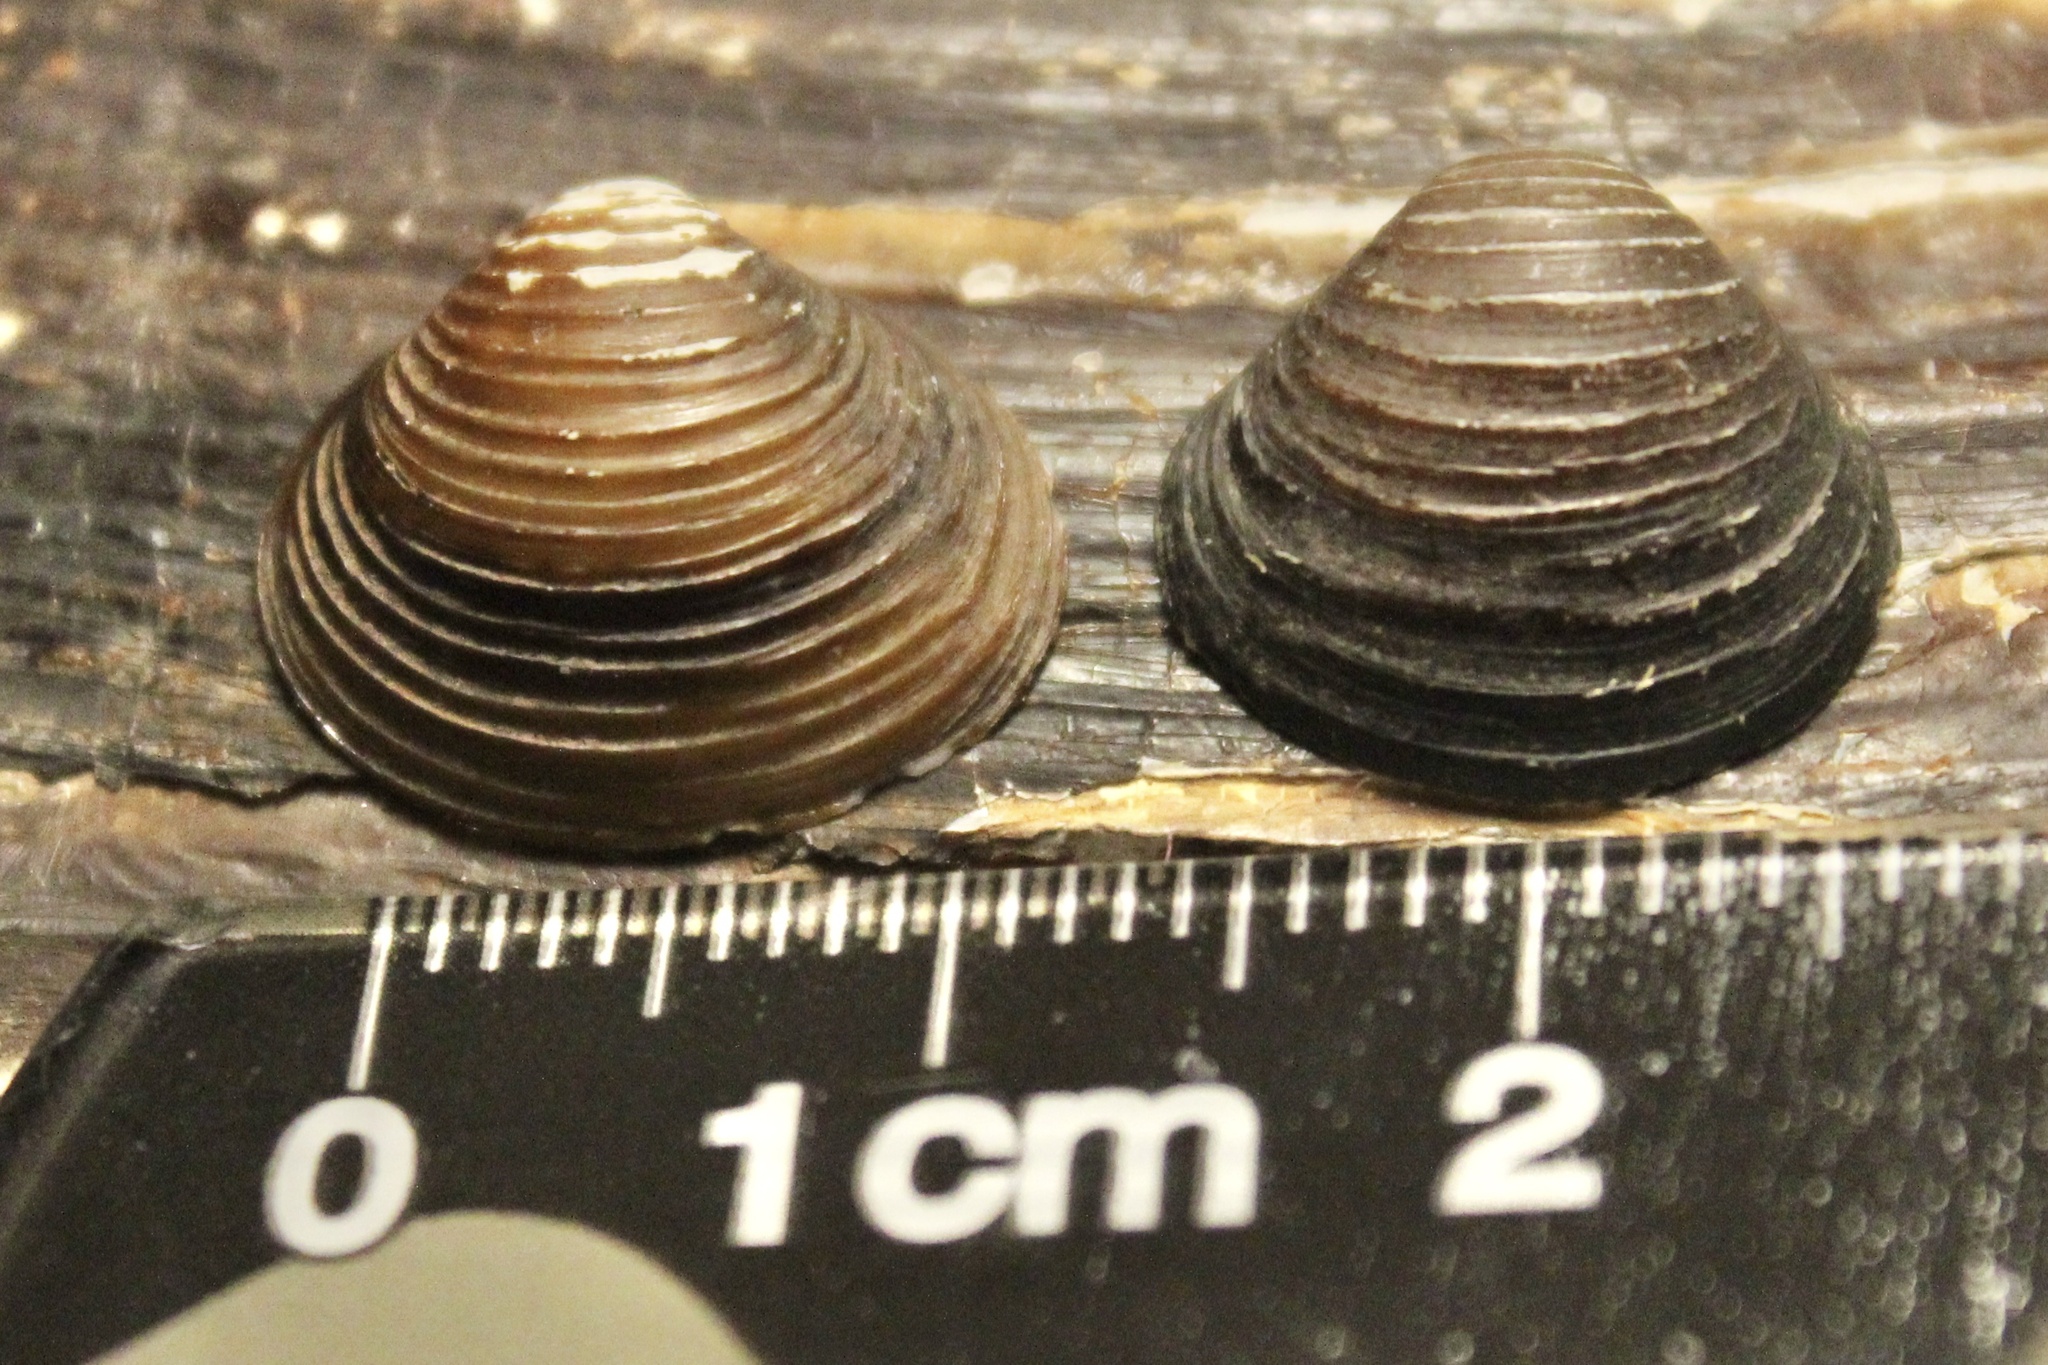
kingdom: Animalia
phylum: Mollusca
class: Bivalvia
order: Venerida
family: Cyrenidae
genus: Corbicula
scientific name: Corbicula fluminea
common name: Asian clam
